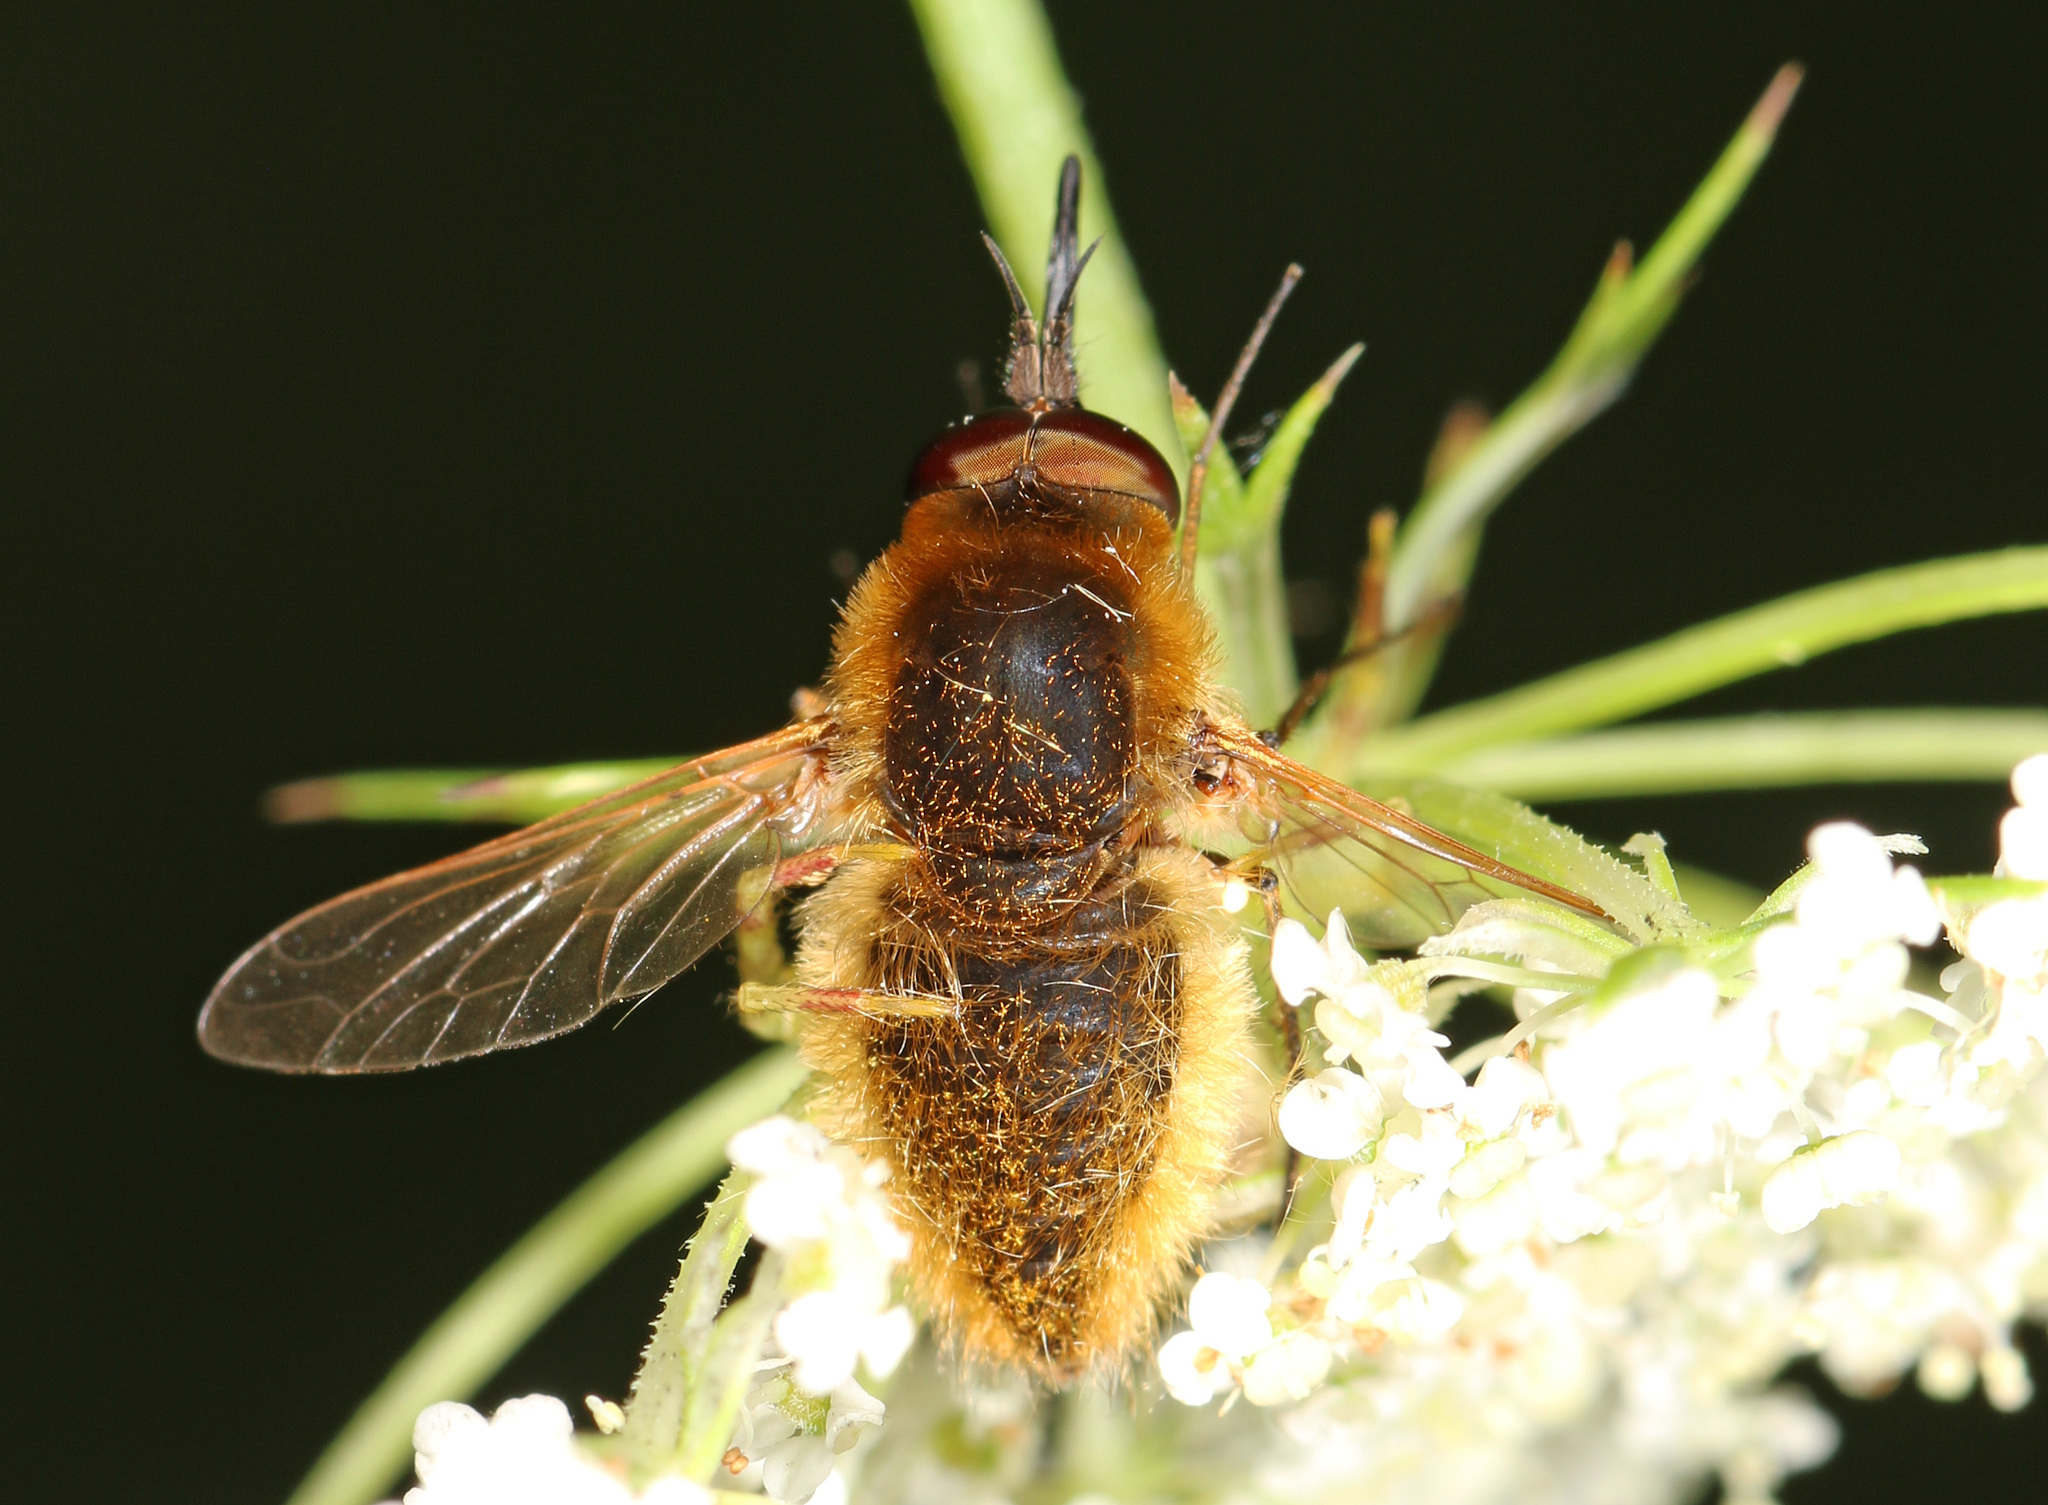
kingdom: Animalia
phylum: Arthropoda
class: Insecta
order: Diptera
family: Bombyliidae
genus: Sparnopolius
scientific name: Sparnopolius confusus
